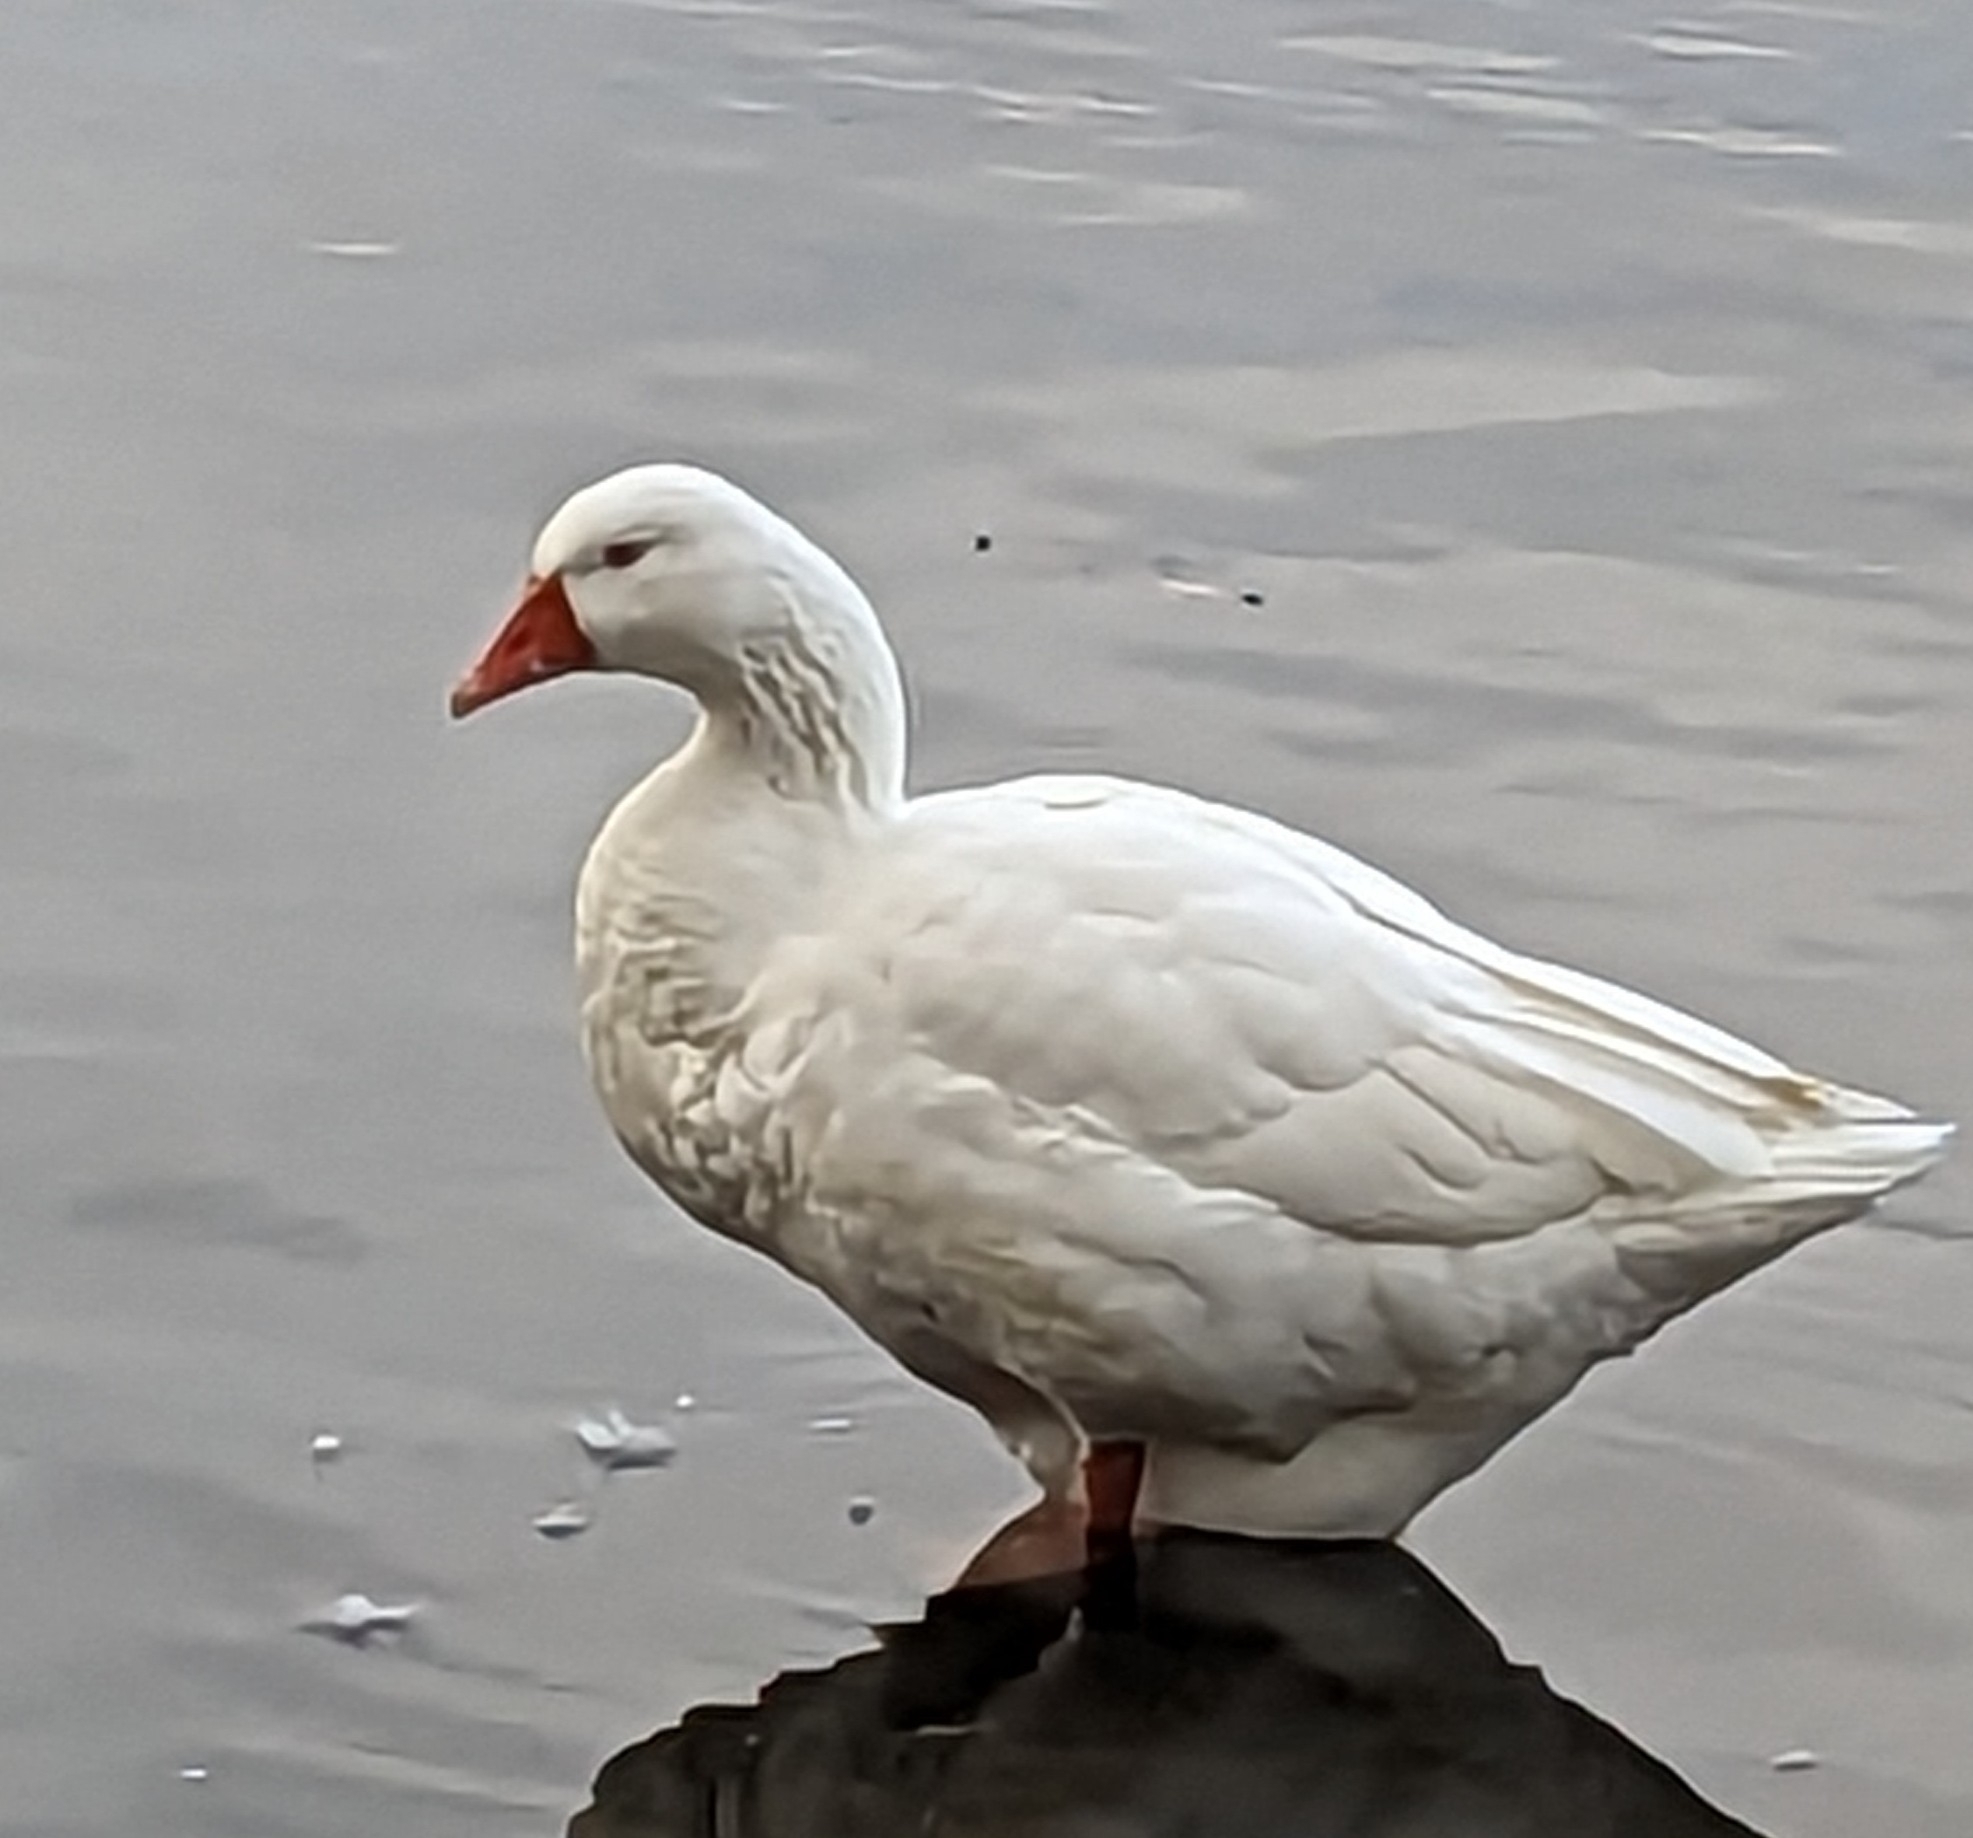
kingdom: Animalia
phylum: Chordata
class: Aves
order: Anseriformes
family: Anatidae
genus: Anser
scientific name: Anser anser
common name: Greylag goose
